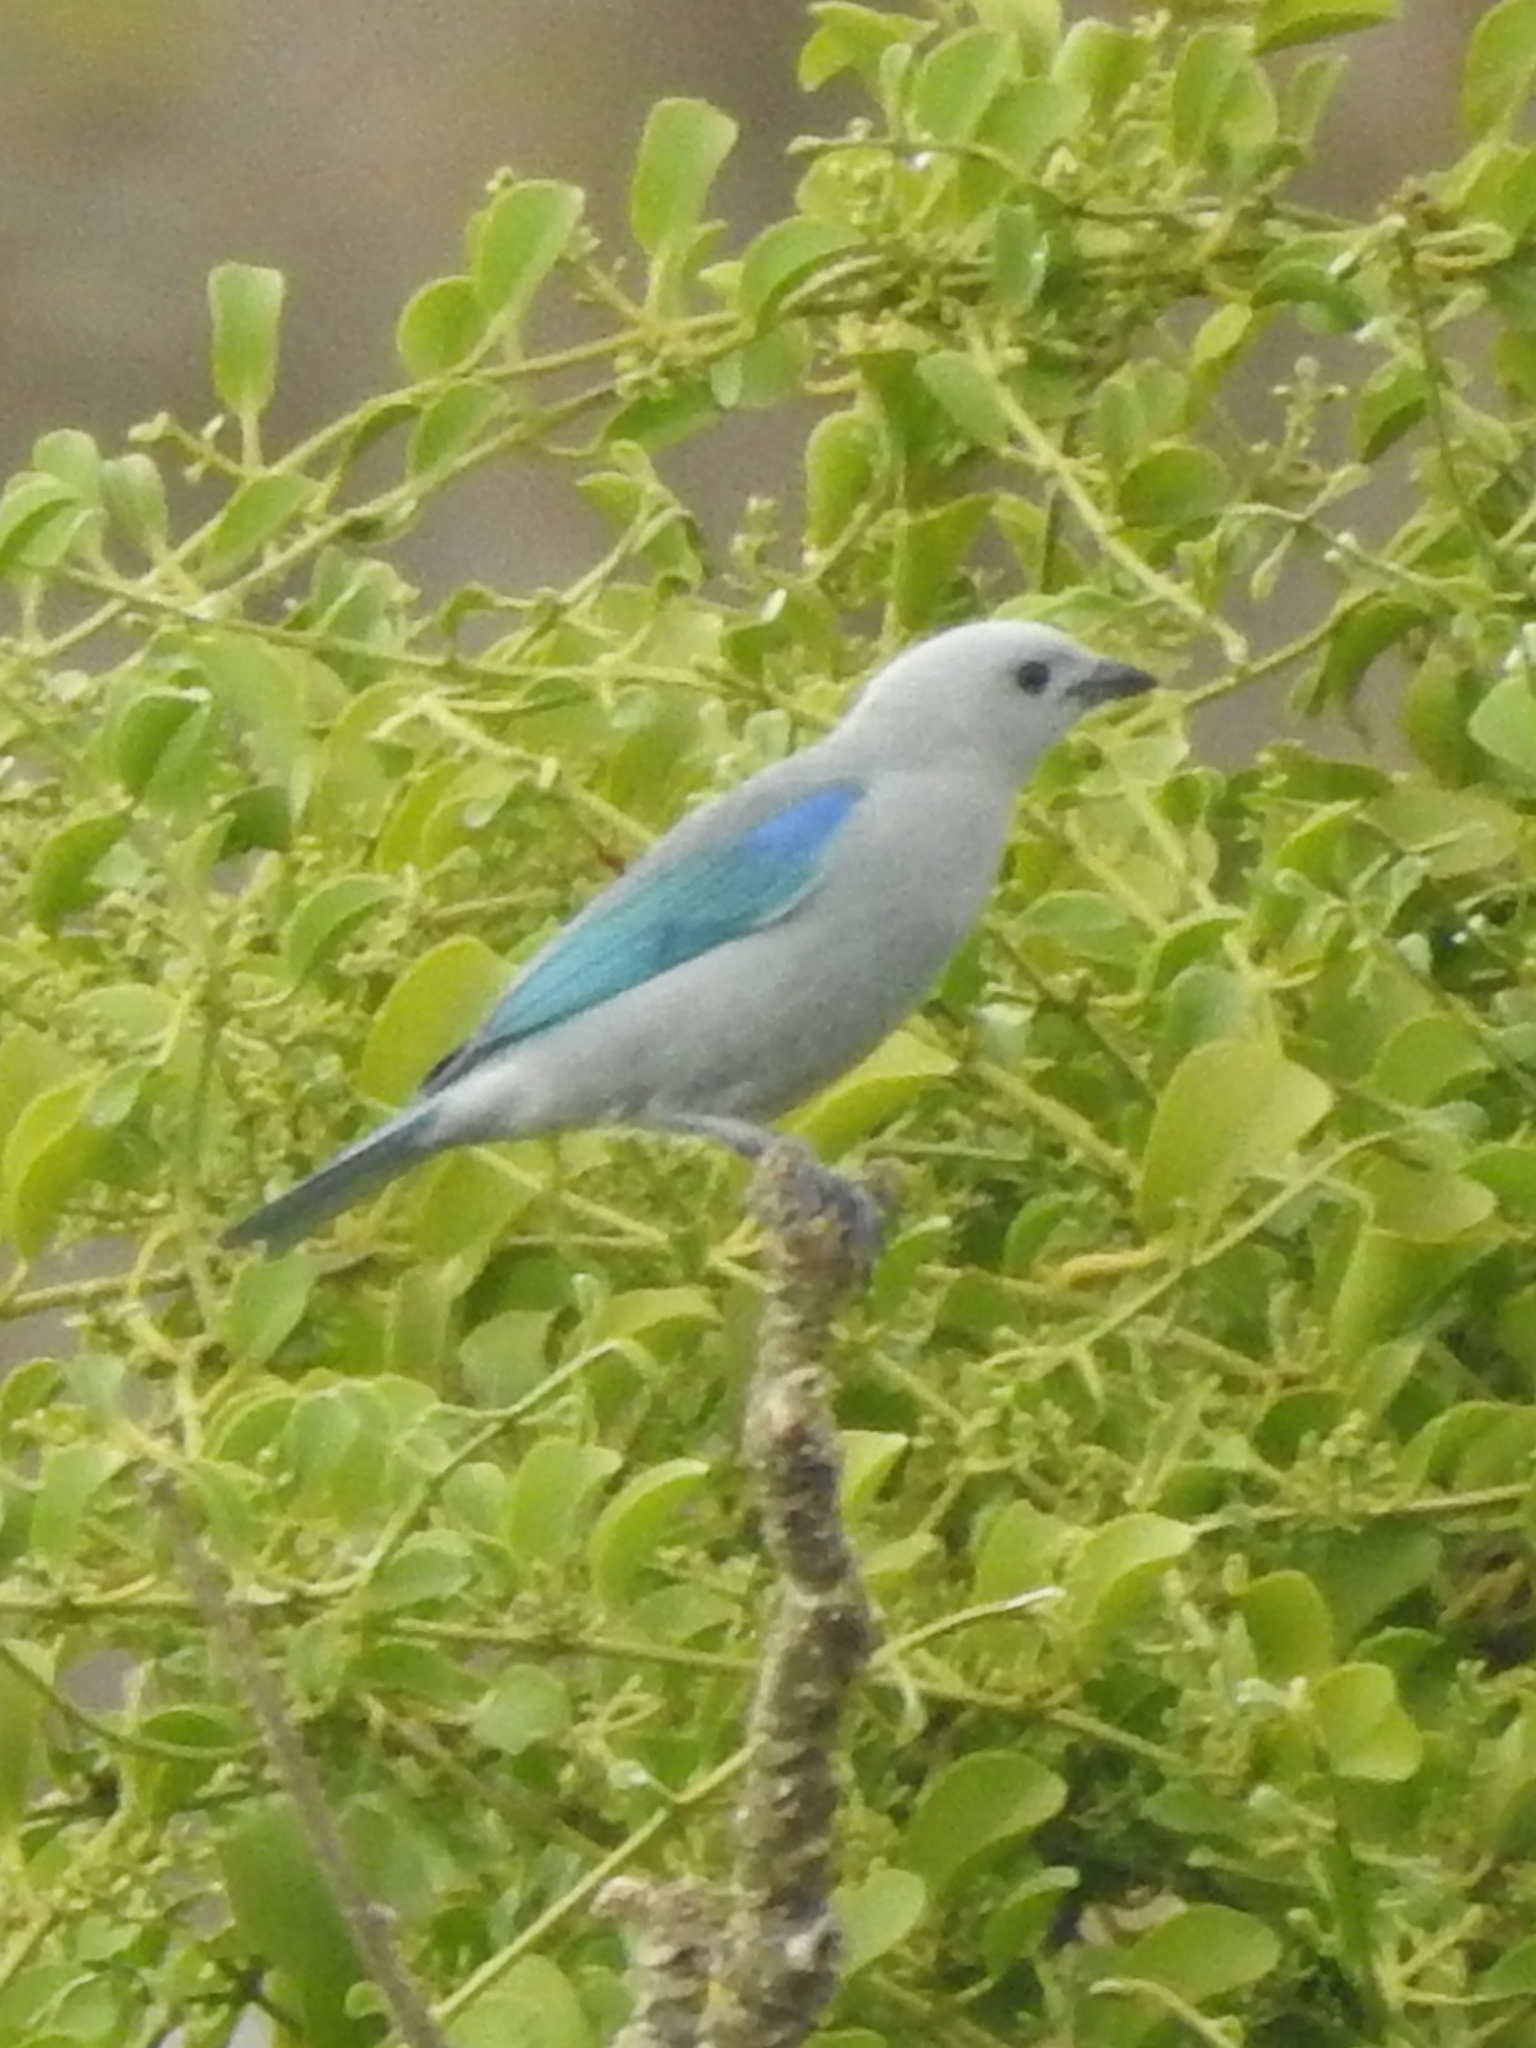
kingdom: Animalia
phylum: Chordata
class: Aves
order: Passeriformes
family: Thraupidae
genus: Thraupis
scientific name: Thraupis episcopus
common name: Blue-grey tanager
